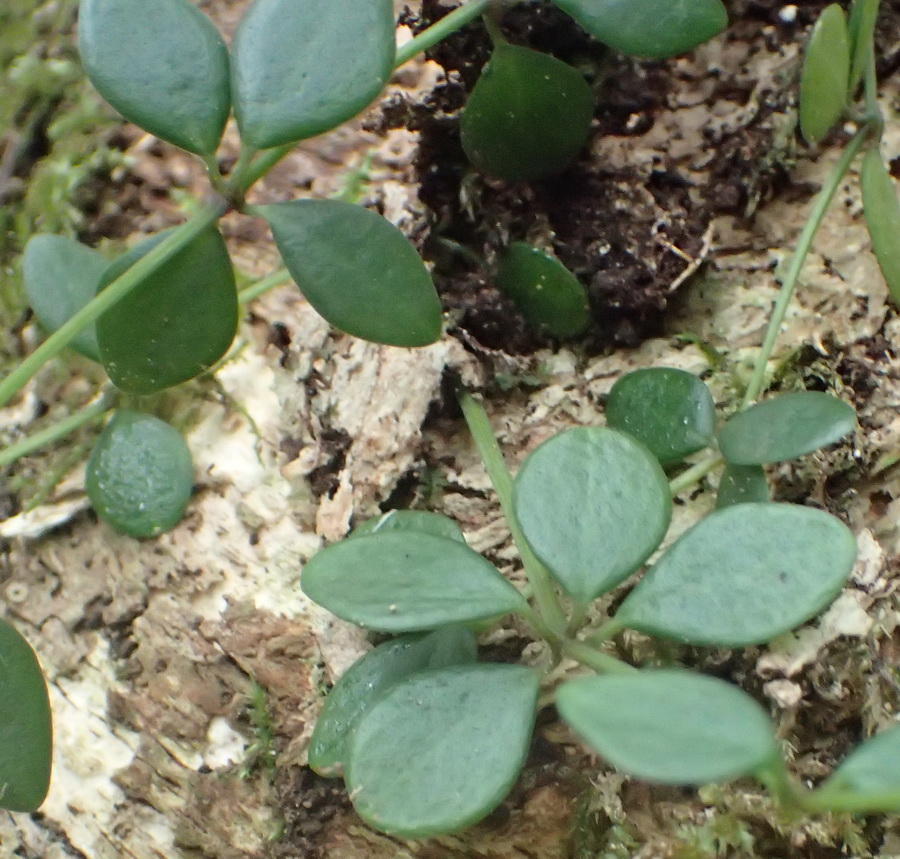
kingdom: Plantae
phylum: Tracheophyta
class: Magnoliopsida
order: Piperales
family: Piperaceae
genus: Peperomia
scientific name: Peperomia tetraphylla
